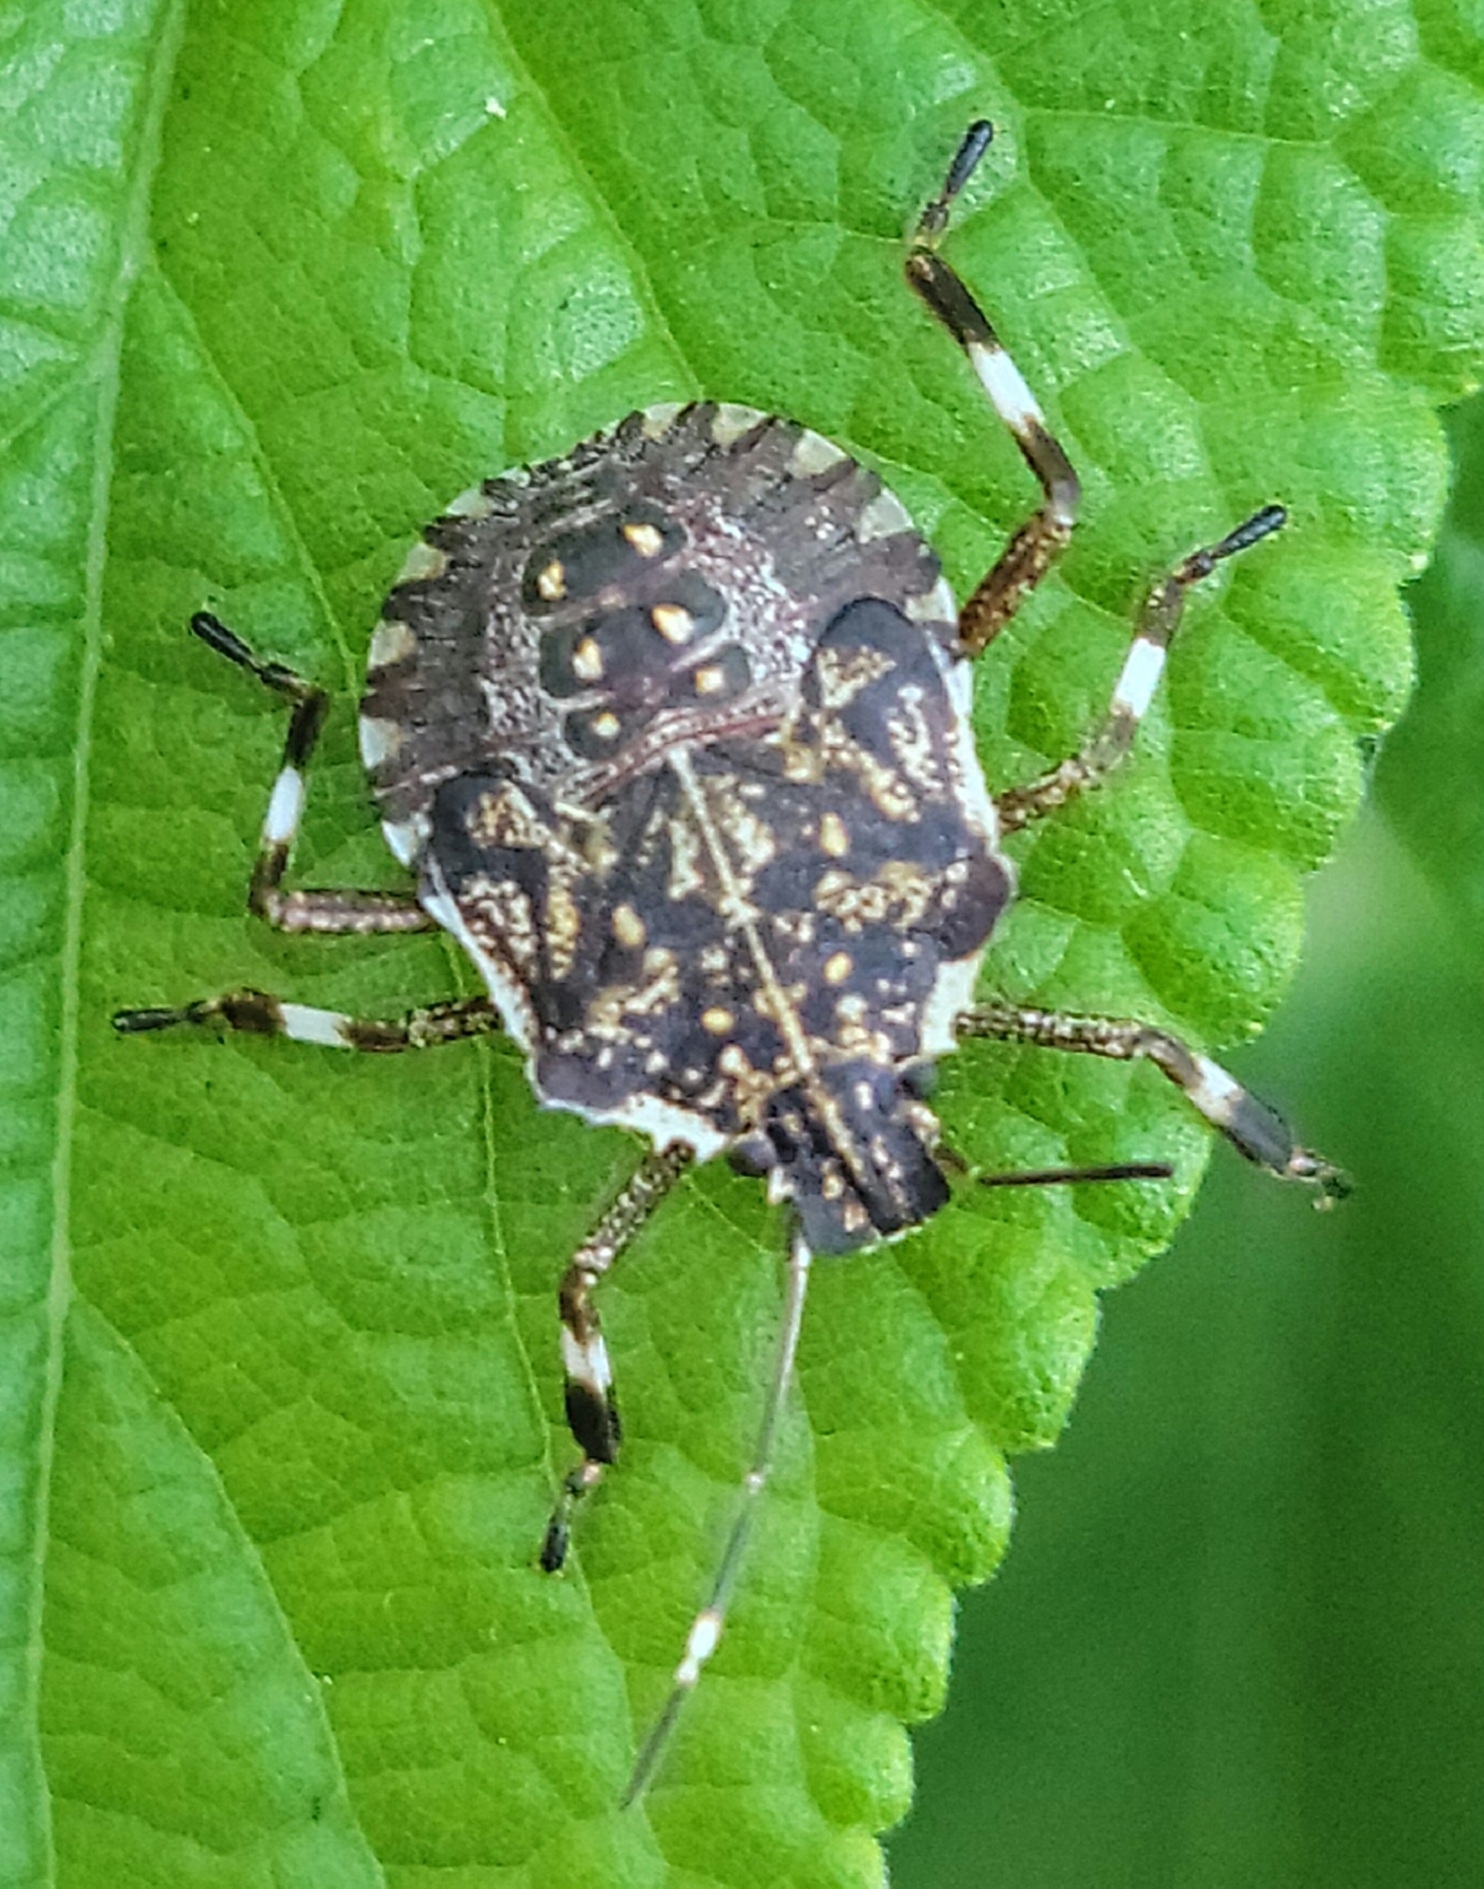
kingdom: Animalia
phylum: Arthropoda
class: Insecta
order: Hemiptera
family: Pentatomidae
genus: Halyomorpha
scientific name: Halyomorpha halys
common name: Brown marmorated stink bug
